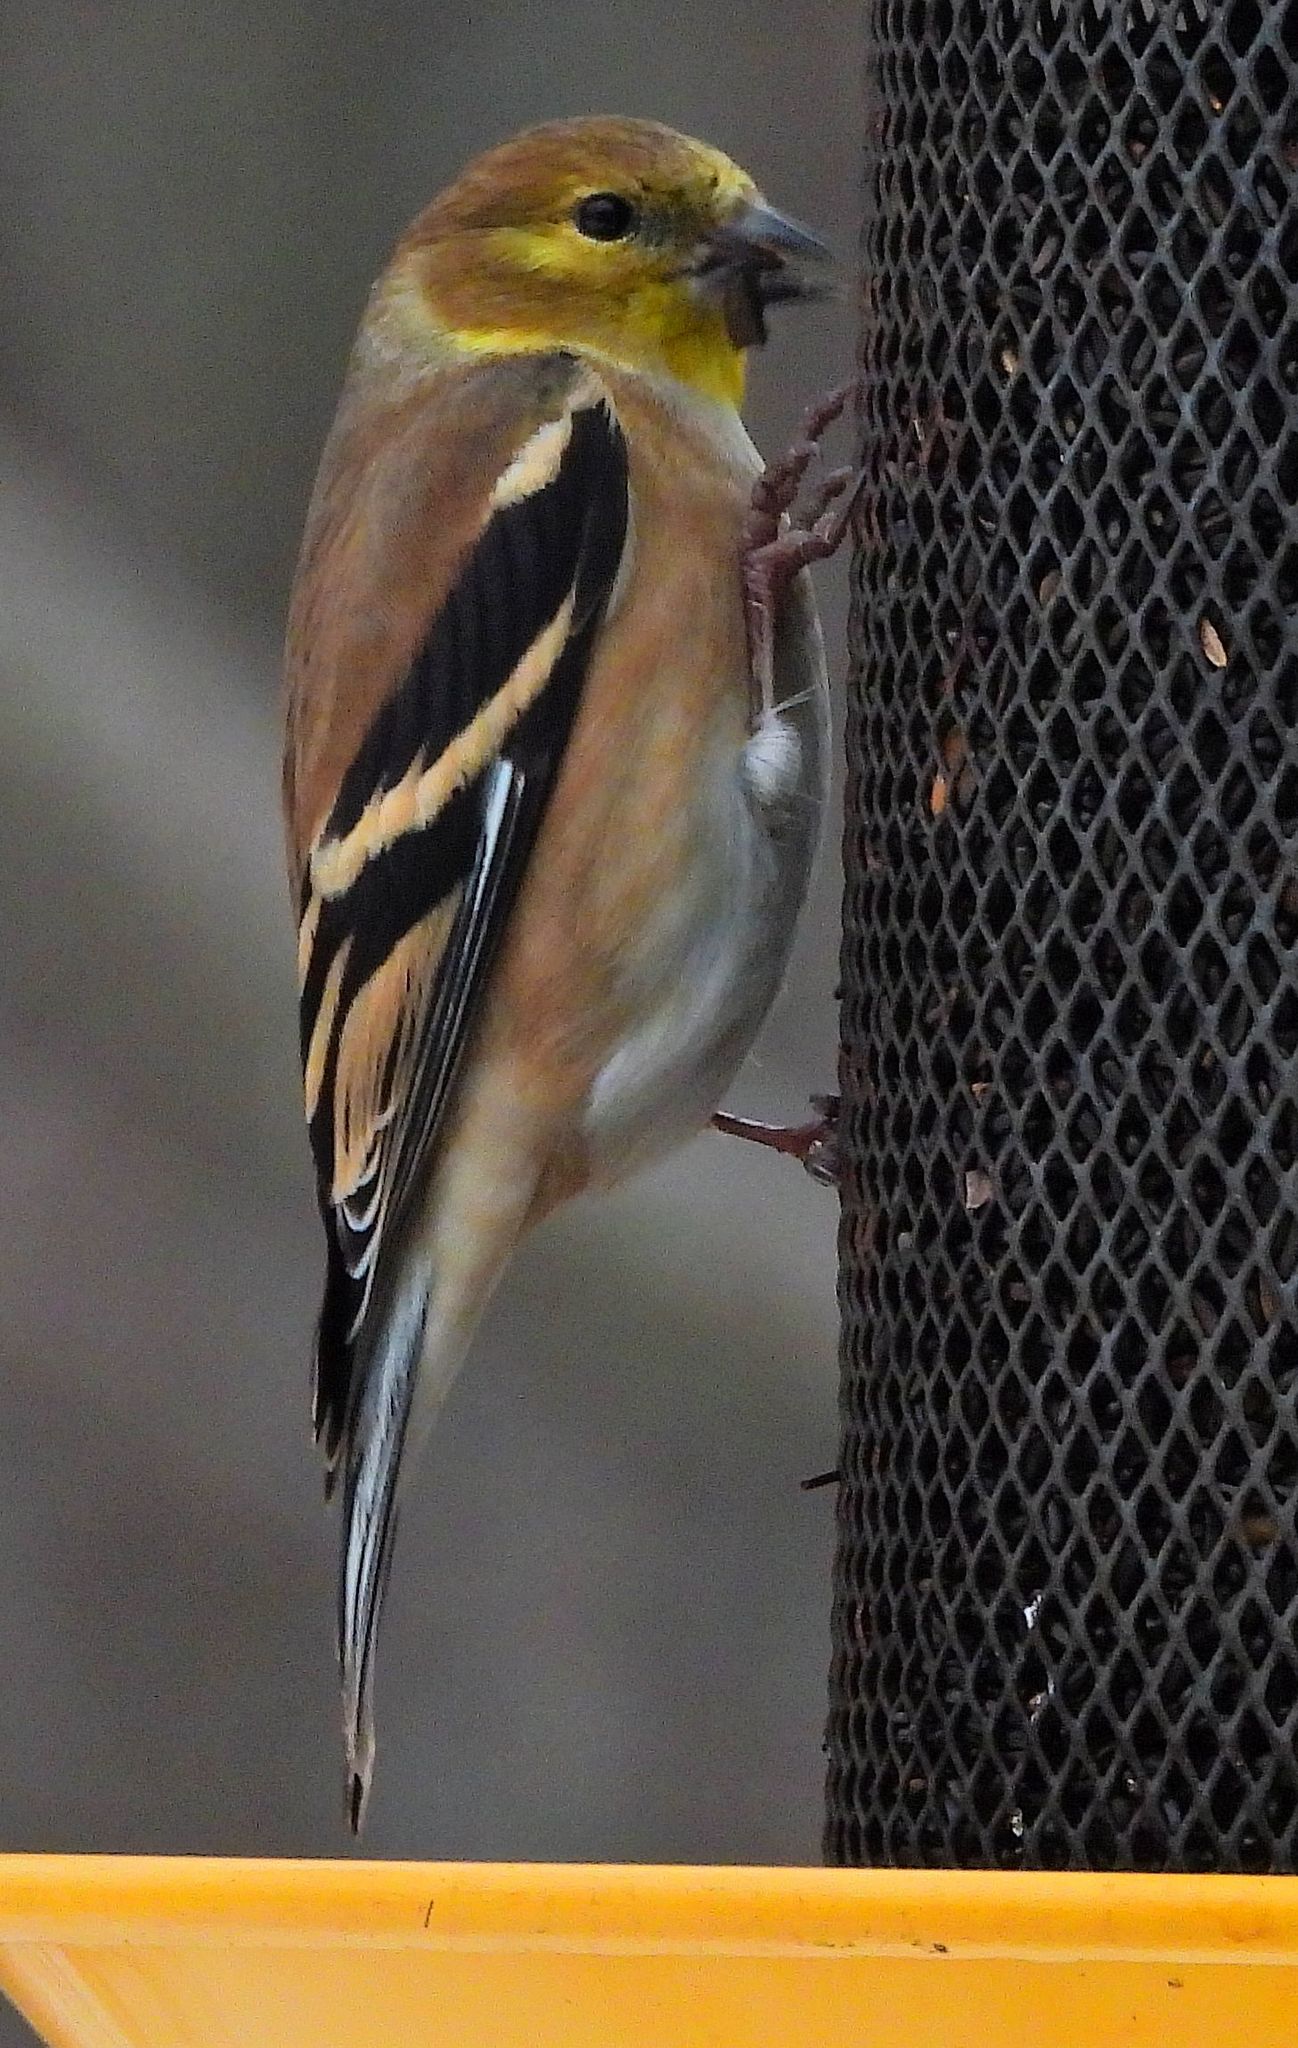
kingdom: Animalia
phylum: Chordata
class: Aves
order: Passeriformes
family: Fringillidae
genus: Spinus
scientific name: Spinus tristis
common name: American goldfinch
